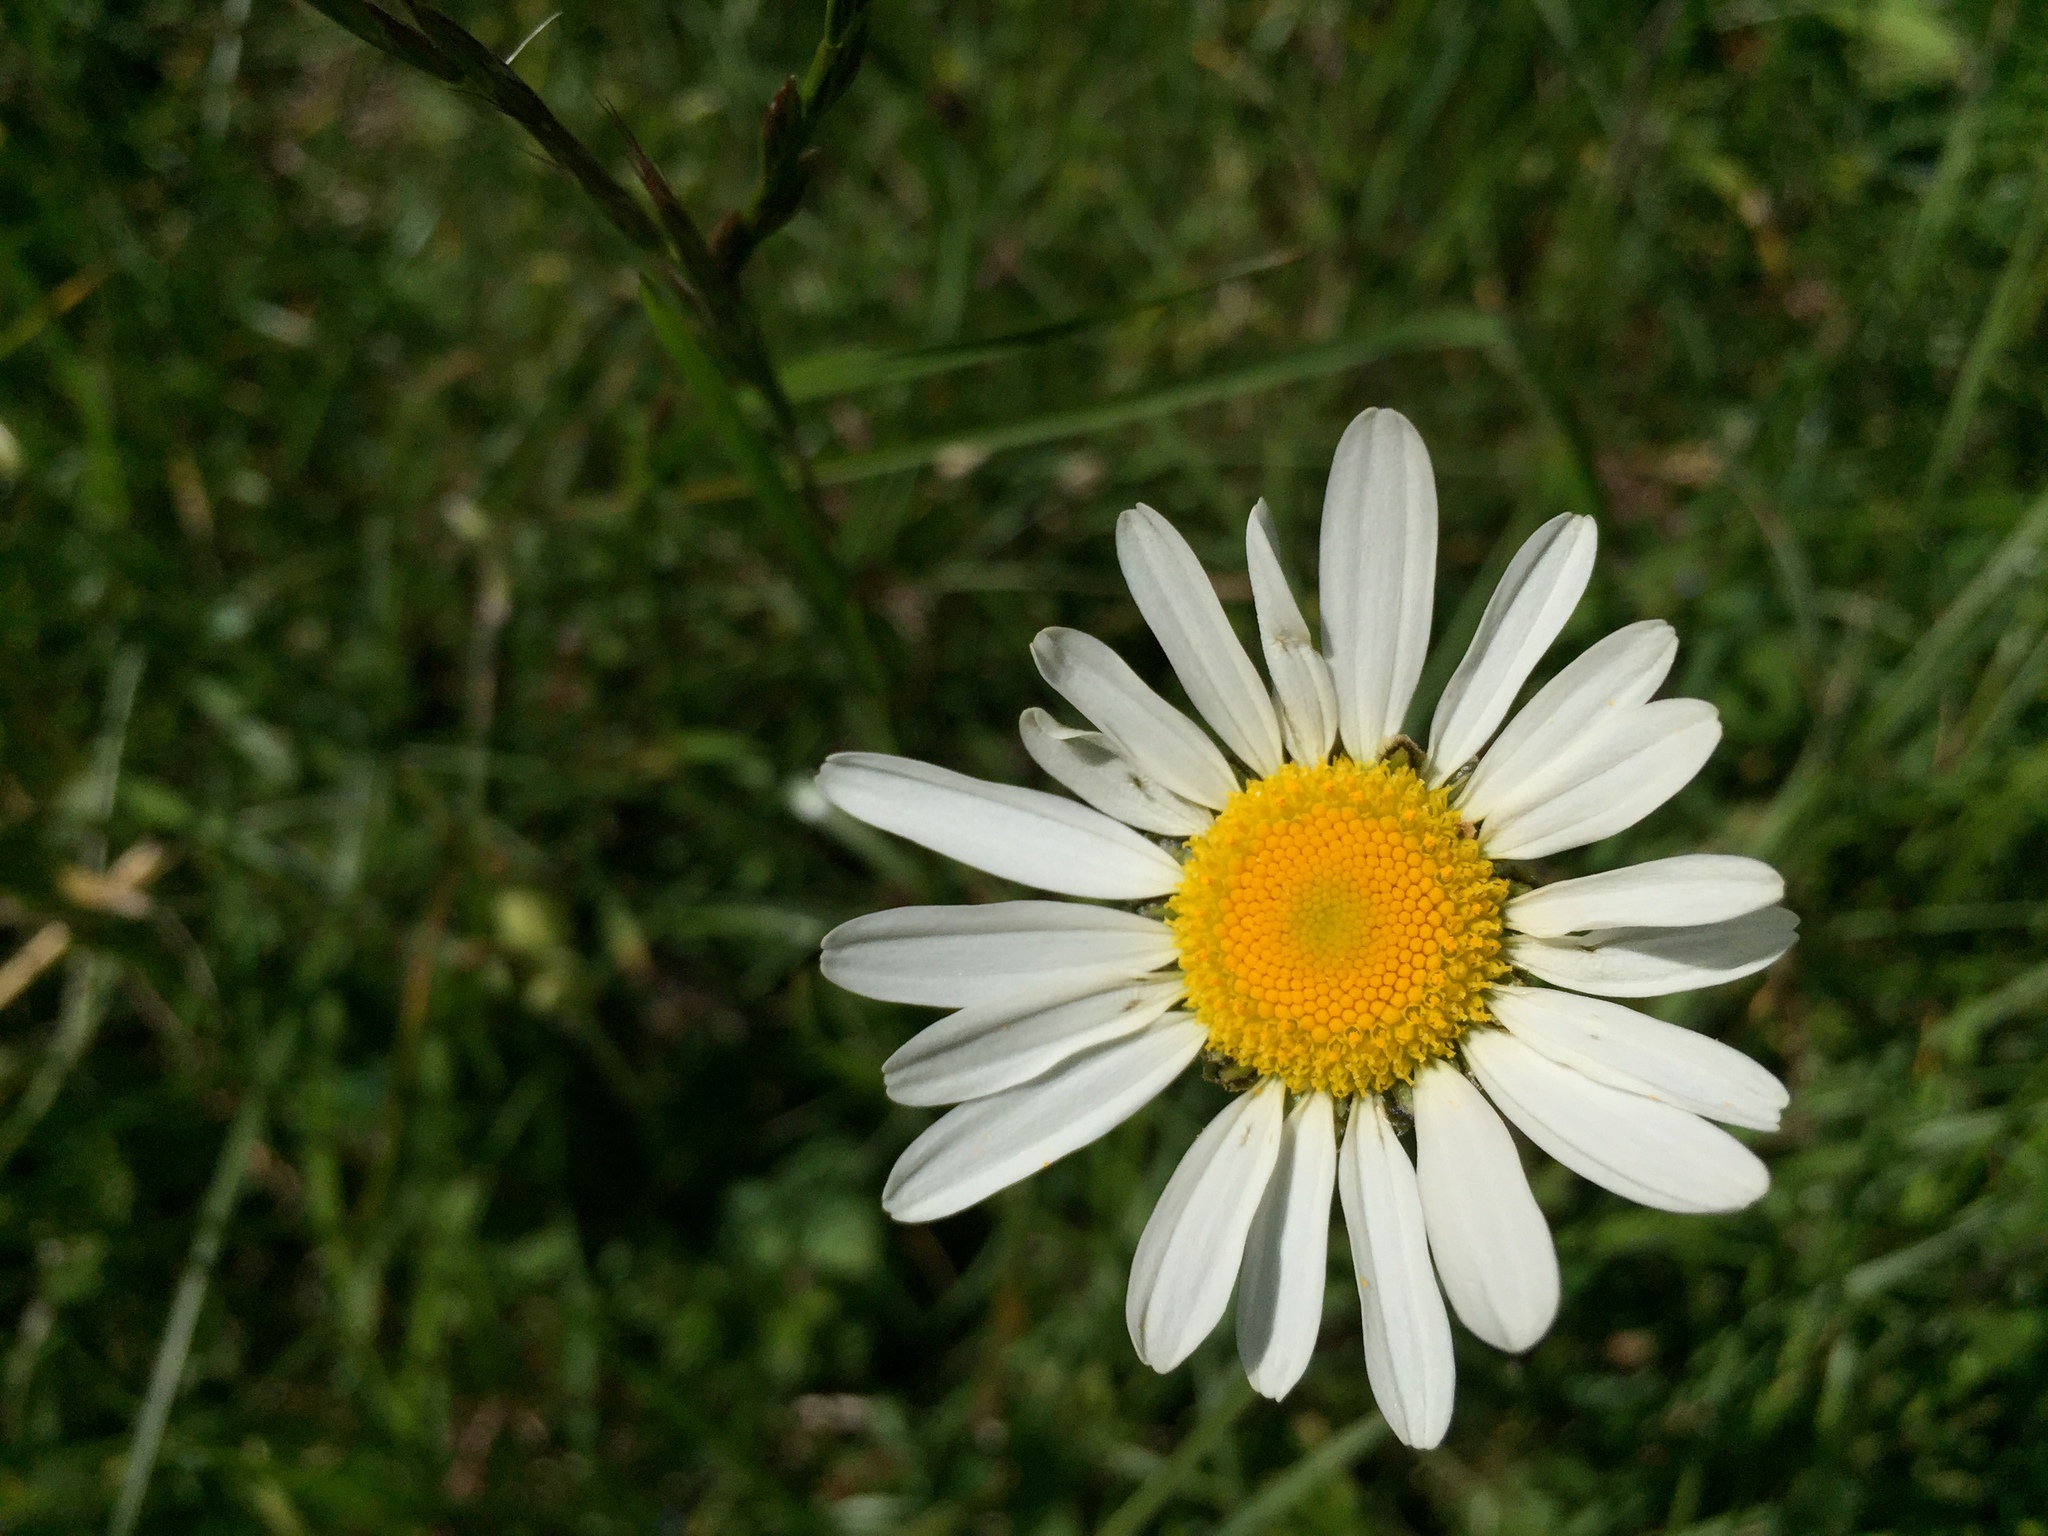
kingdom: Plantae
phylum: Tracheophyta
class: Magnoliopsida
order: Asterales
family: Asteraceae
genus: Leucanthemum
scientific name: Leucanthemum vulgare
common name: Oxeye daisy
